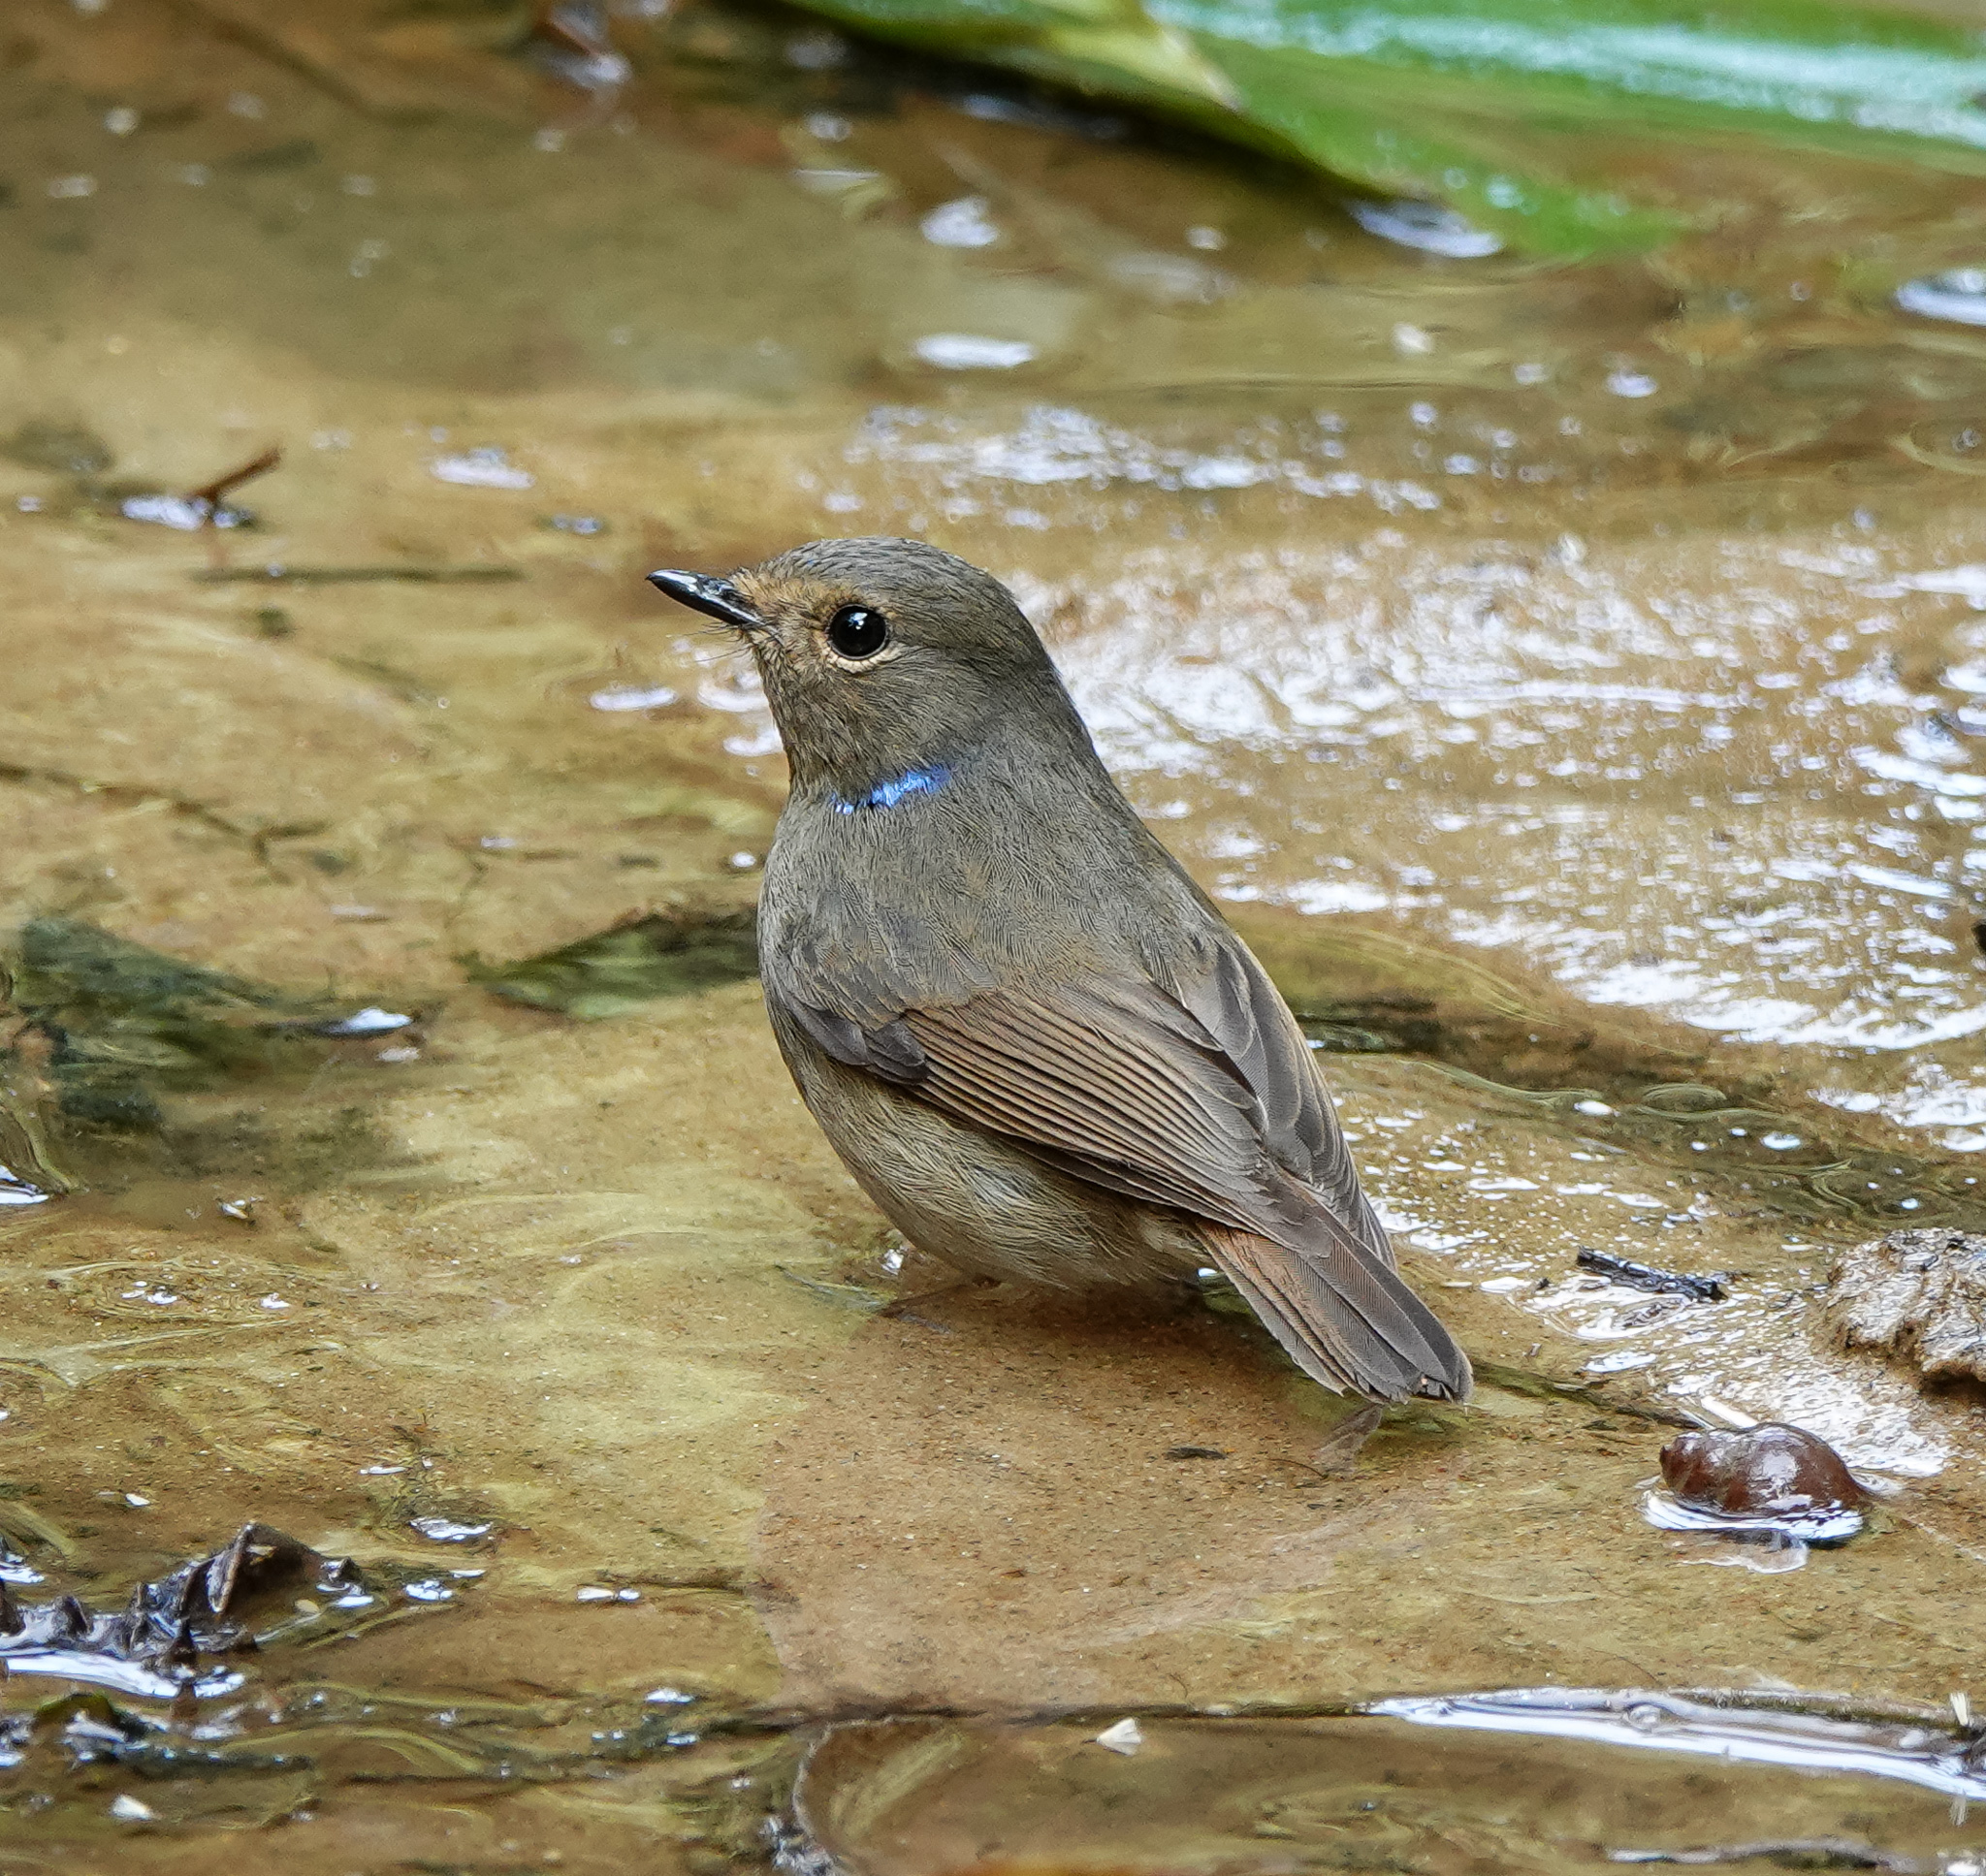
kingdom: Animalia
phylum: Chordata
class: Aves
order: Passeriformes
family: Muscicapidae
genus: Niltava
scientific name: Niltava macgrigoriae
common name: Small niltava
